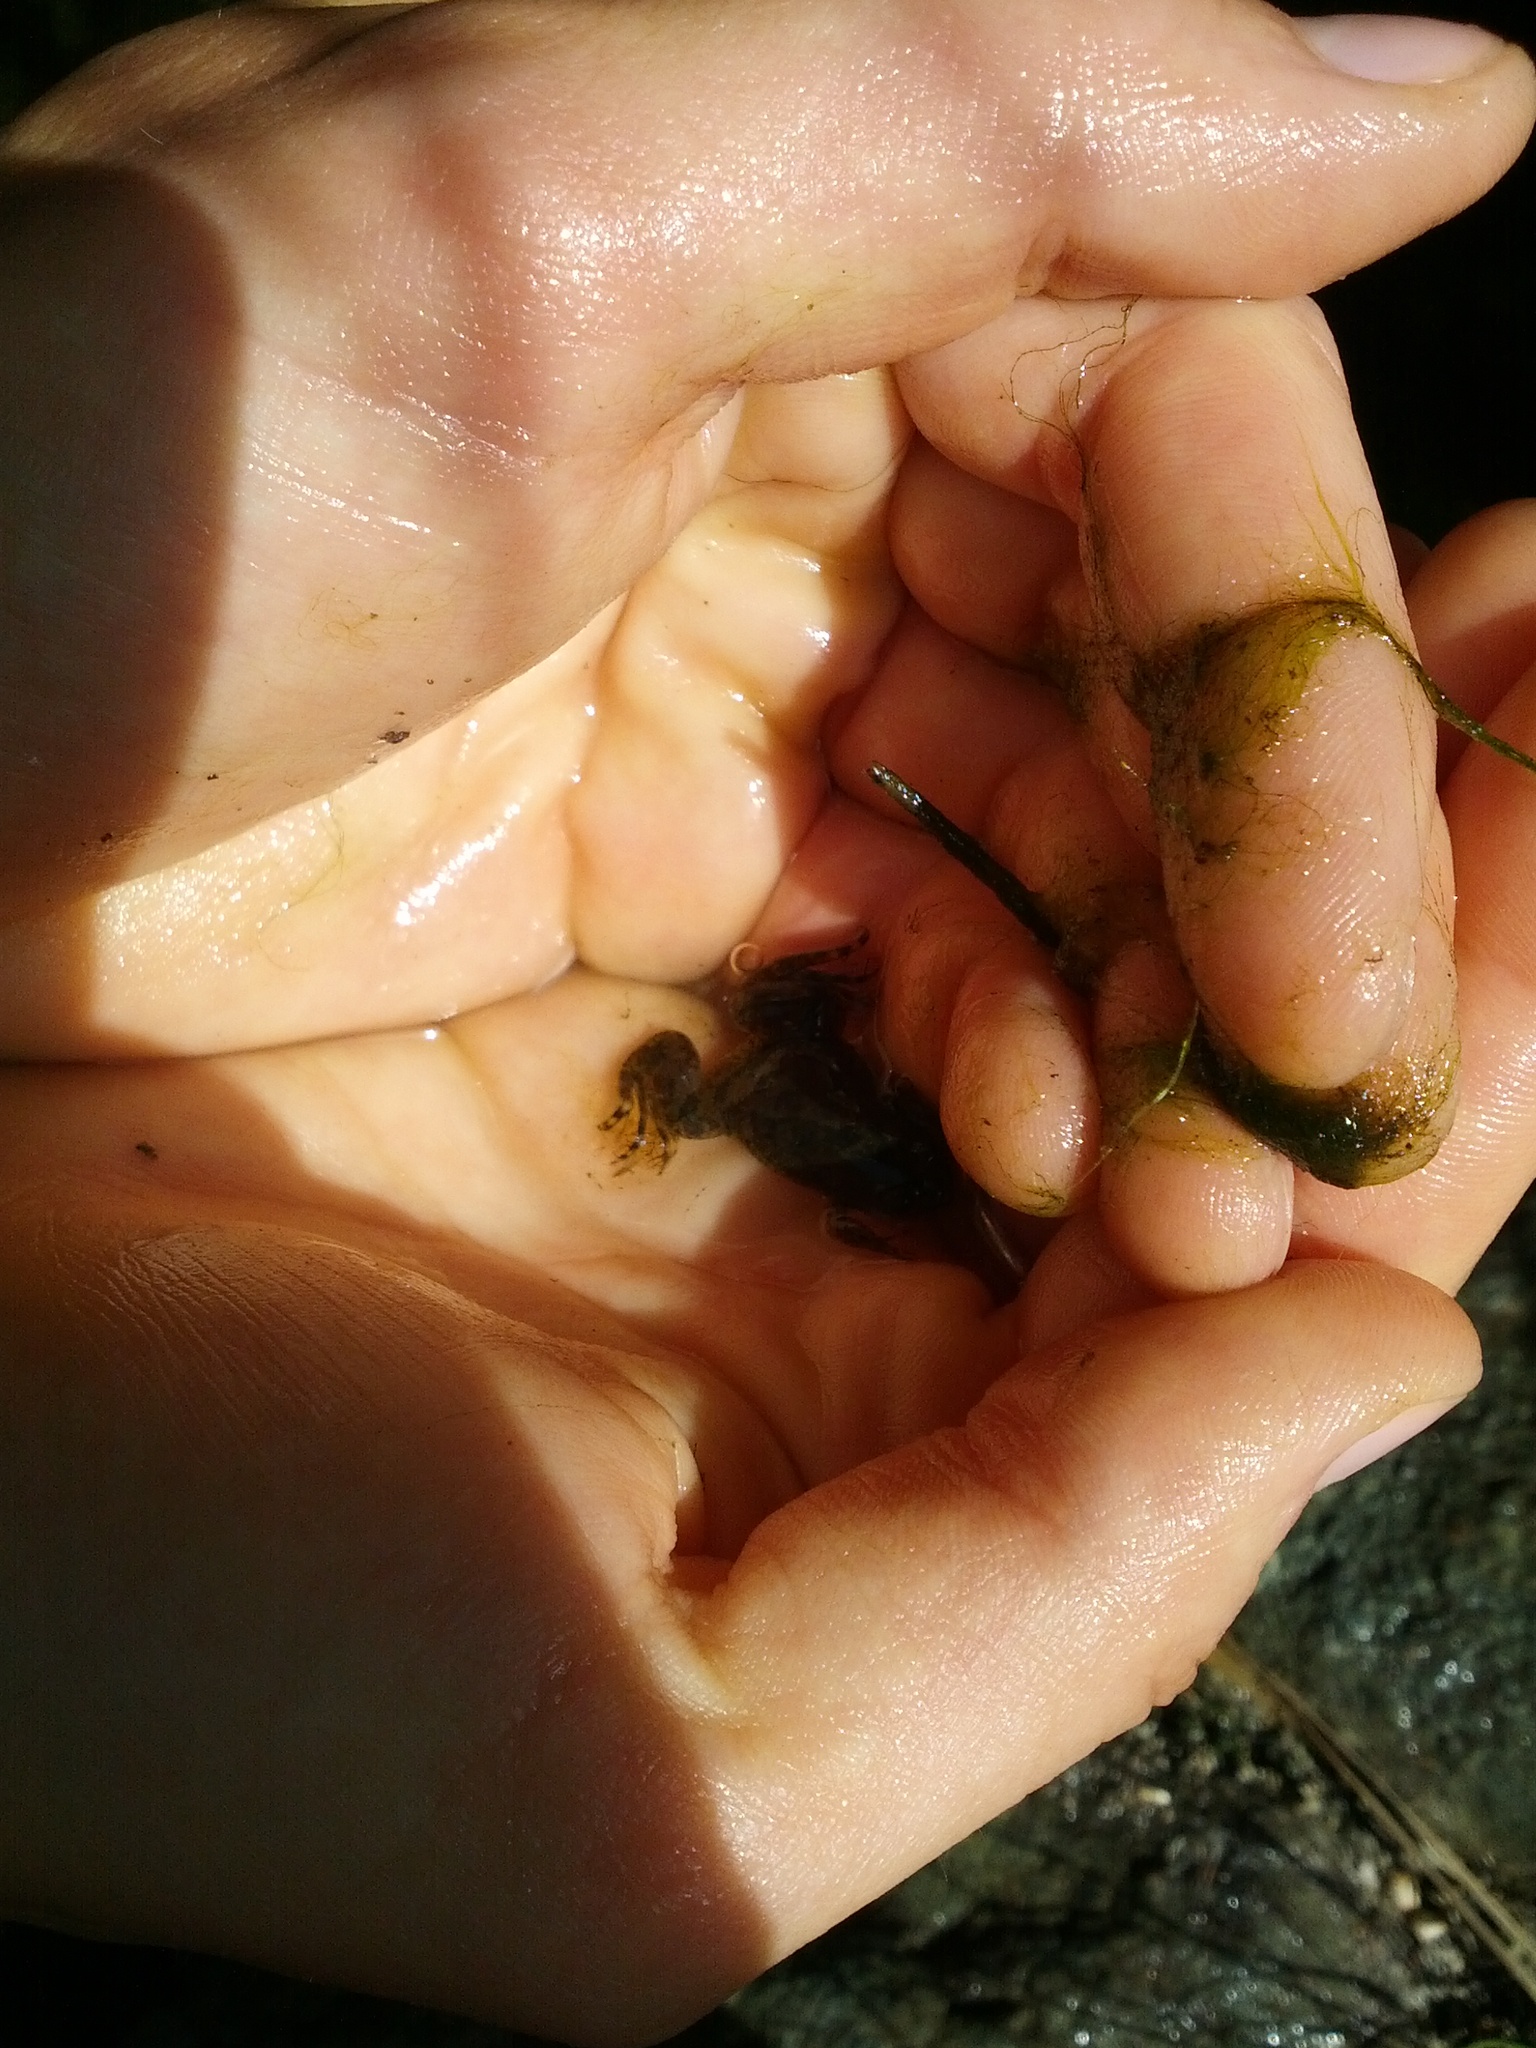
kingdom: Animalia
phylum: Chordata
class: Amphibia
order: Anura
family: Pipidae
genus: Xenopus
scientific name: Xenopus laevis
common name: African clawed frog
